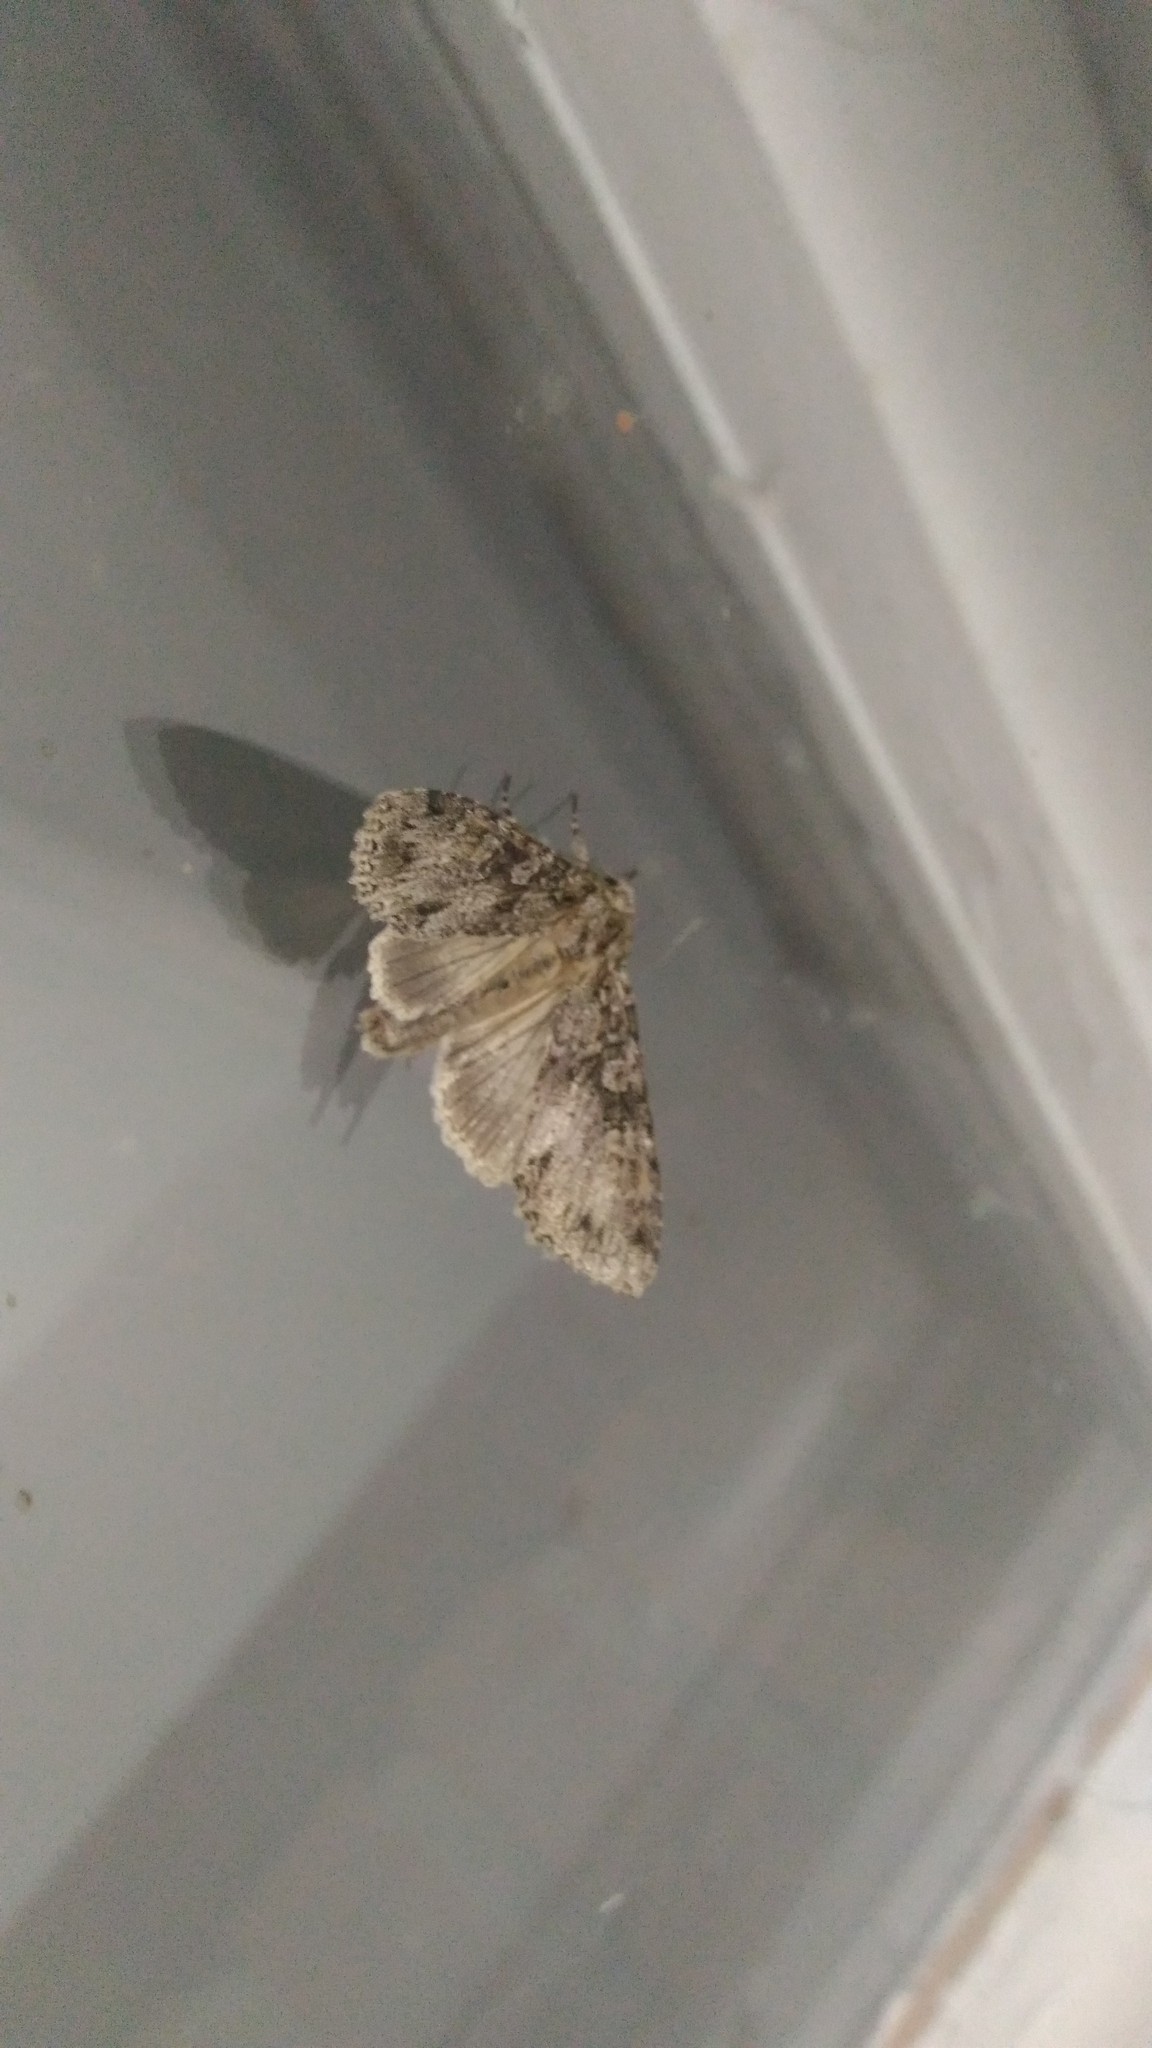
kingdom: Animalia
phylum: Arthropoda
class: Insecta
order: Lepidoptera
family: Noctuidae
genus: Polia
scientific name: Polia nebulosa
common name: Grey arches
